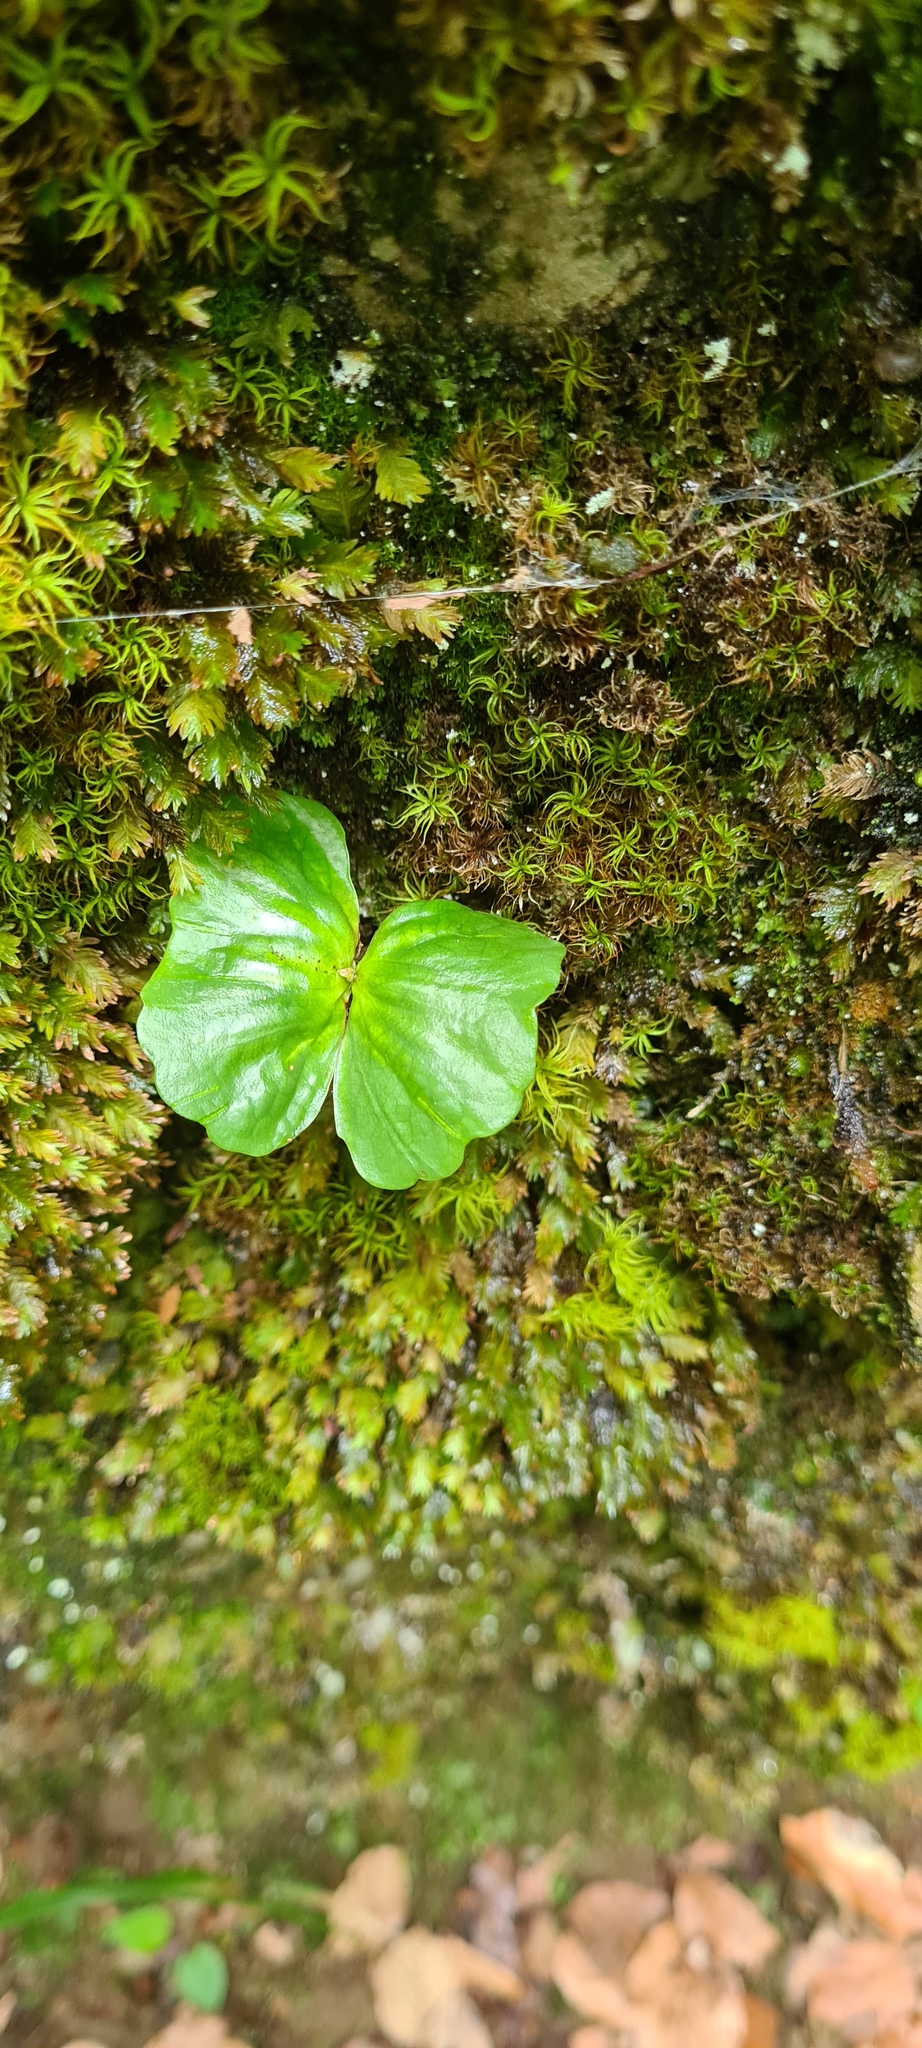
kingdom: Plantae
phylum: Tracheophyta
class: Magnoliopsida
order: Fagales
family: Fagaceae
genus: Fagus
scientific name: Fagus sylvatica
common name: Beech
